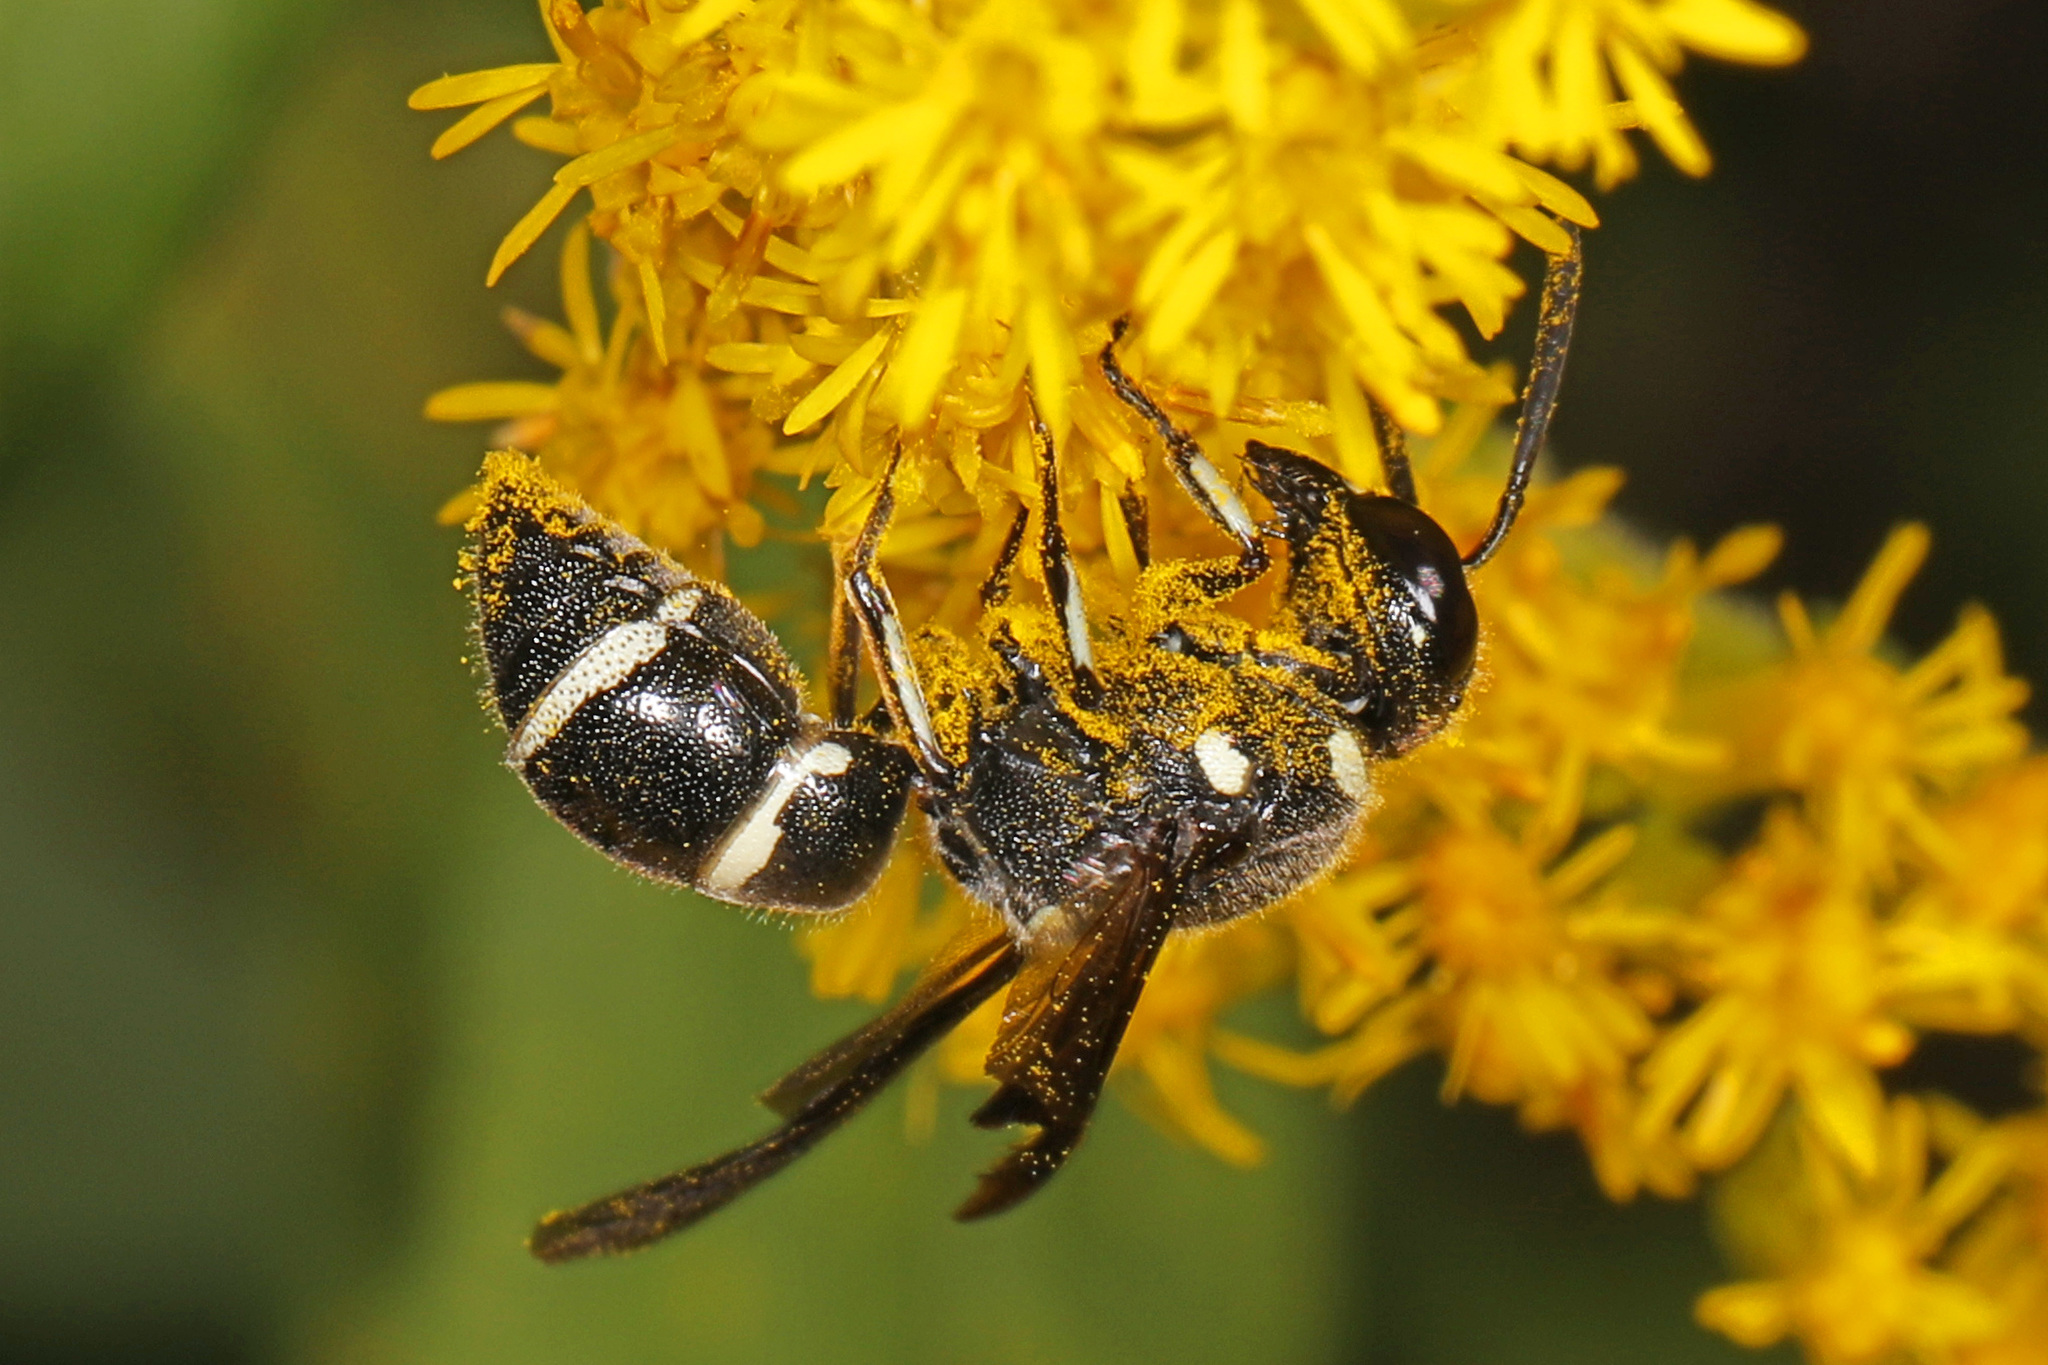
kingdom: Animalia
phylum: Arthropoda
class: Insecta
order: Hymenoptera
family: Eumenidae
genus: Euodynerus
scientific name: Euodynerus schwarzi
